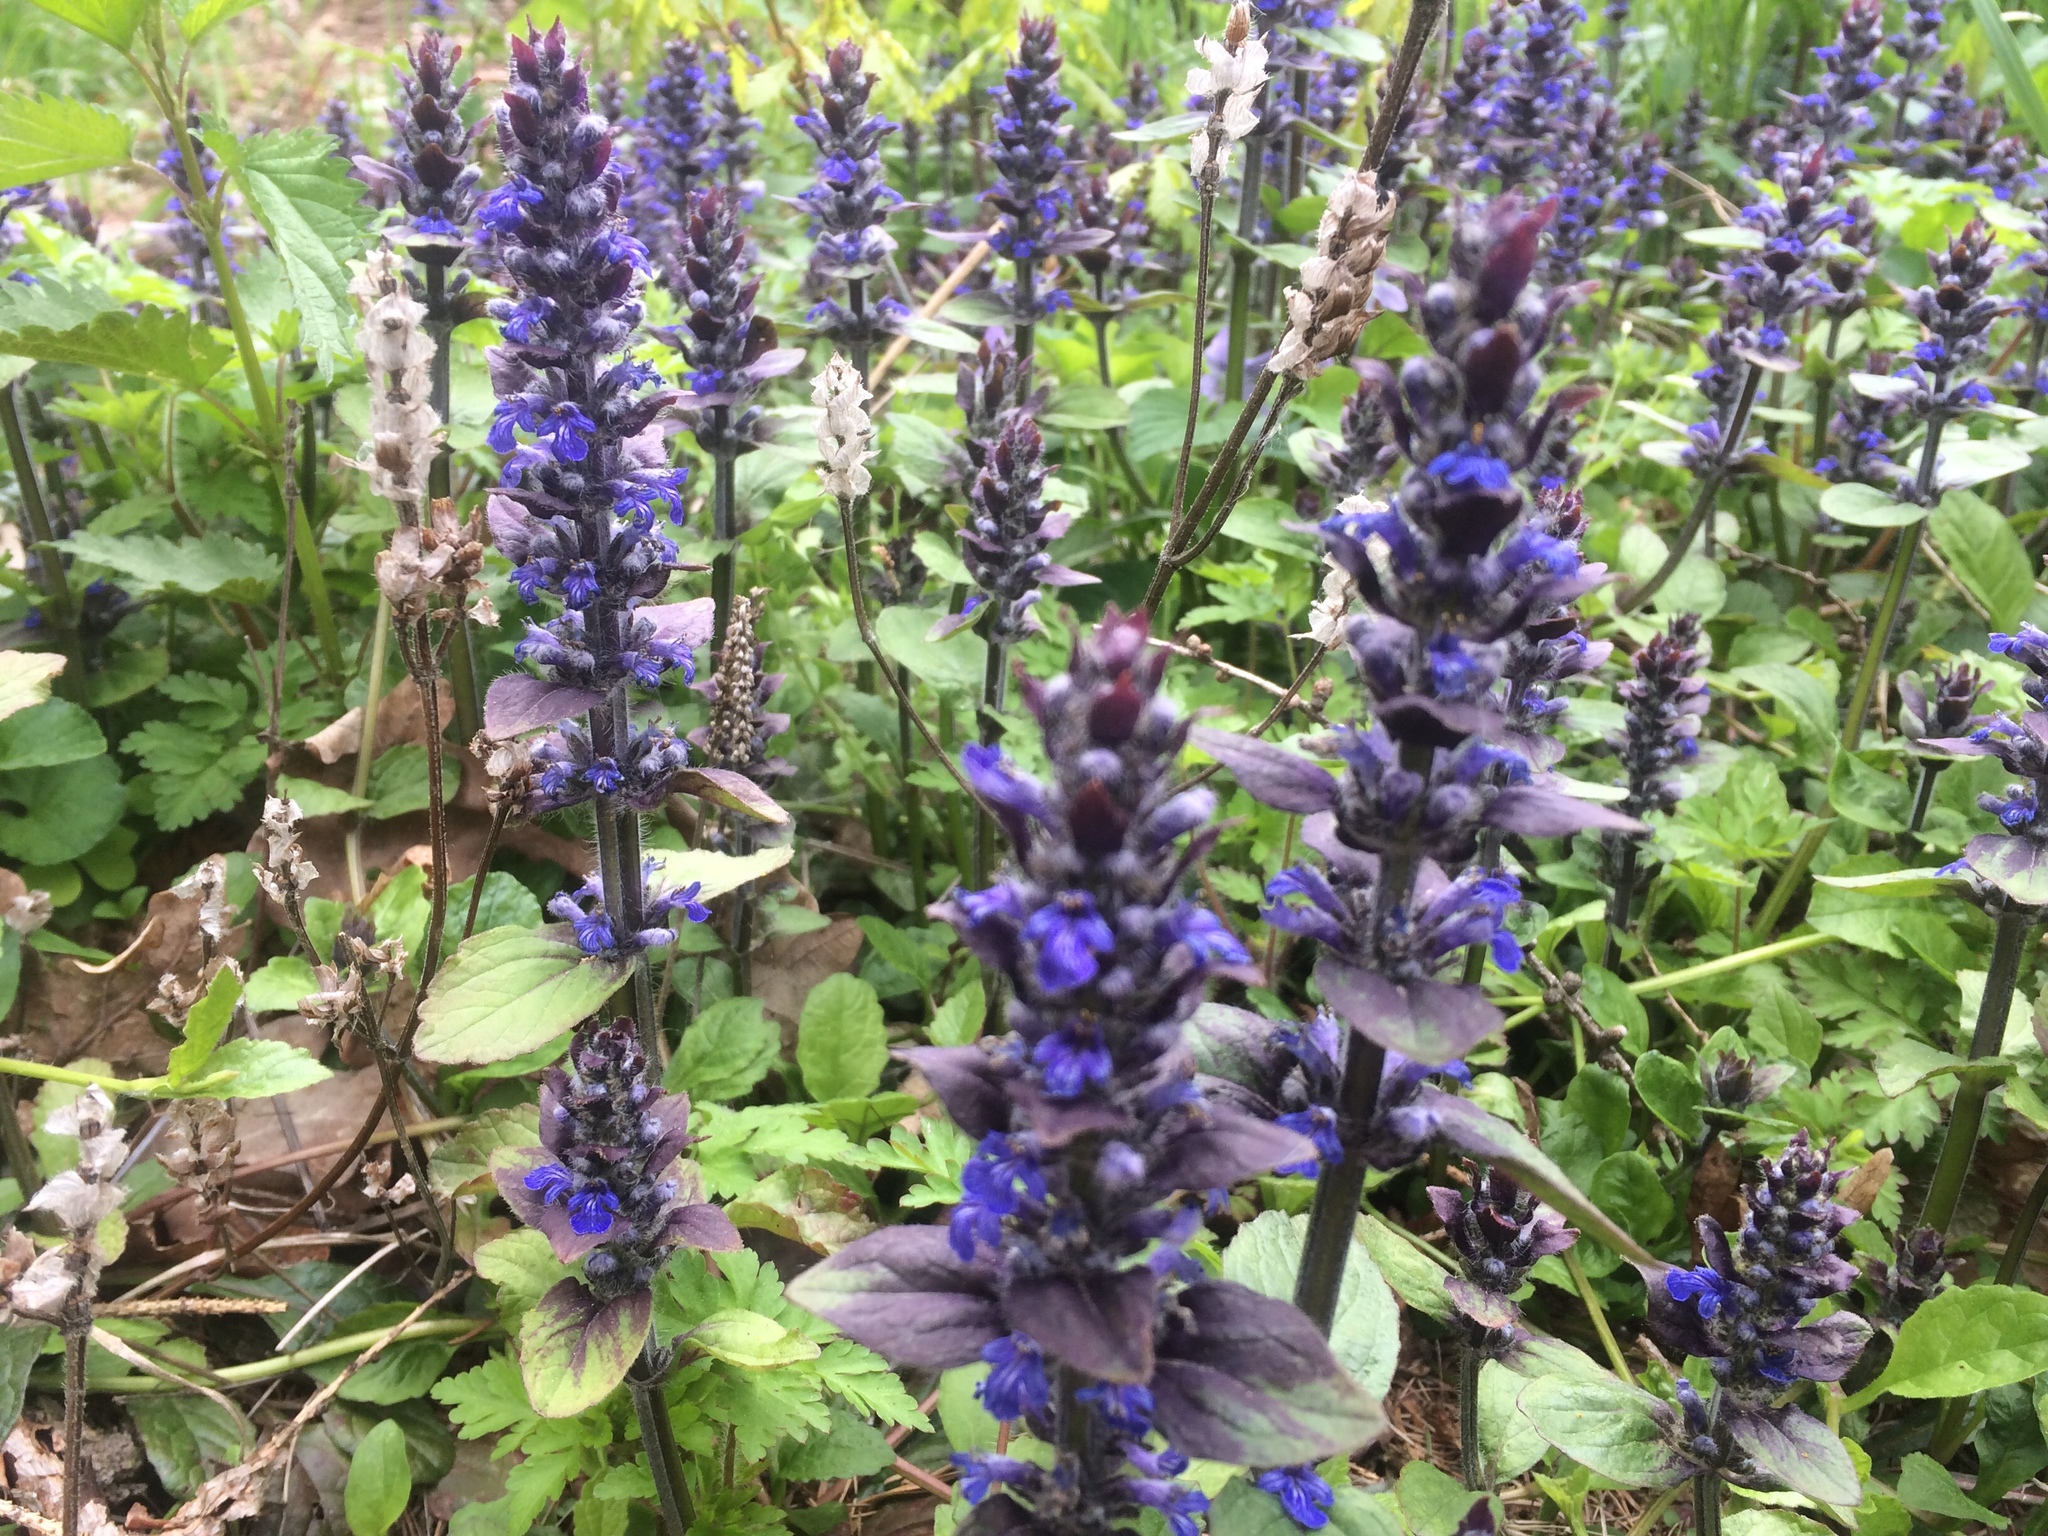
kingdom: Plantae
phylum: Tracheophyta
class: Magnoliopsida
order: Lamiales
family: Lamiaceae
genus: Ajuga
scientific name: Ajuga reptans
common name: Bugle
